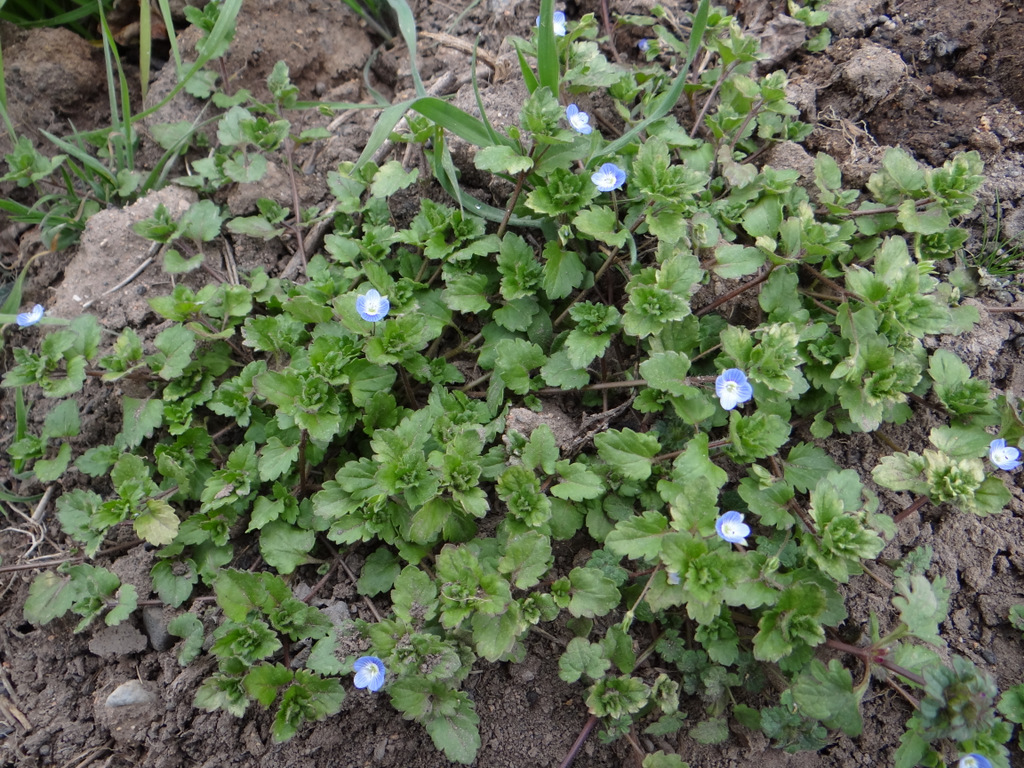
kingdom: Plantae
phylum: Tracheophyta
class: Magnoliopsida
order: Lamiales
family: Plantaginaceae
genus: Veronica
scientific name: Veronica persica
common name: Common field-speedwell
